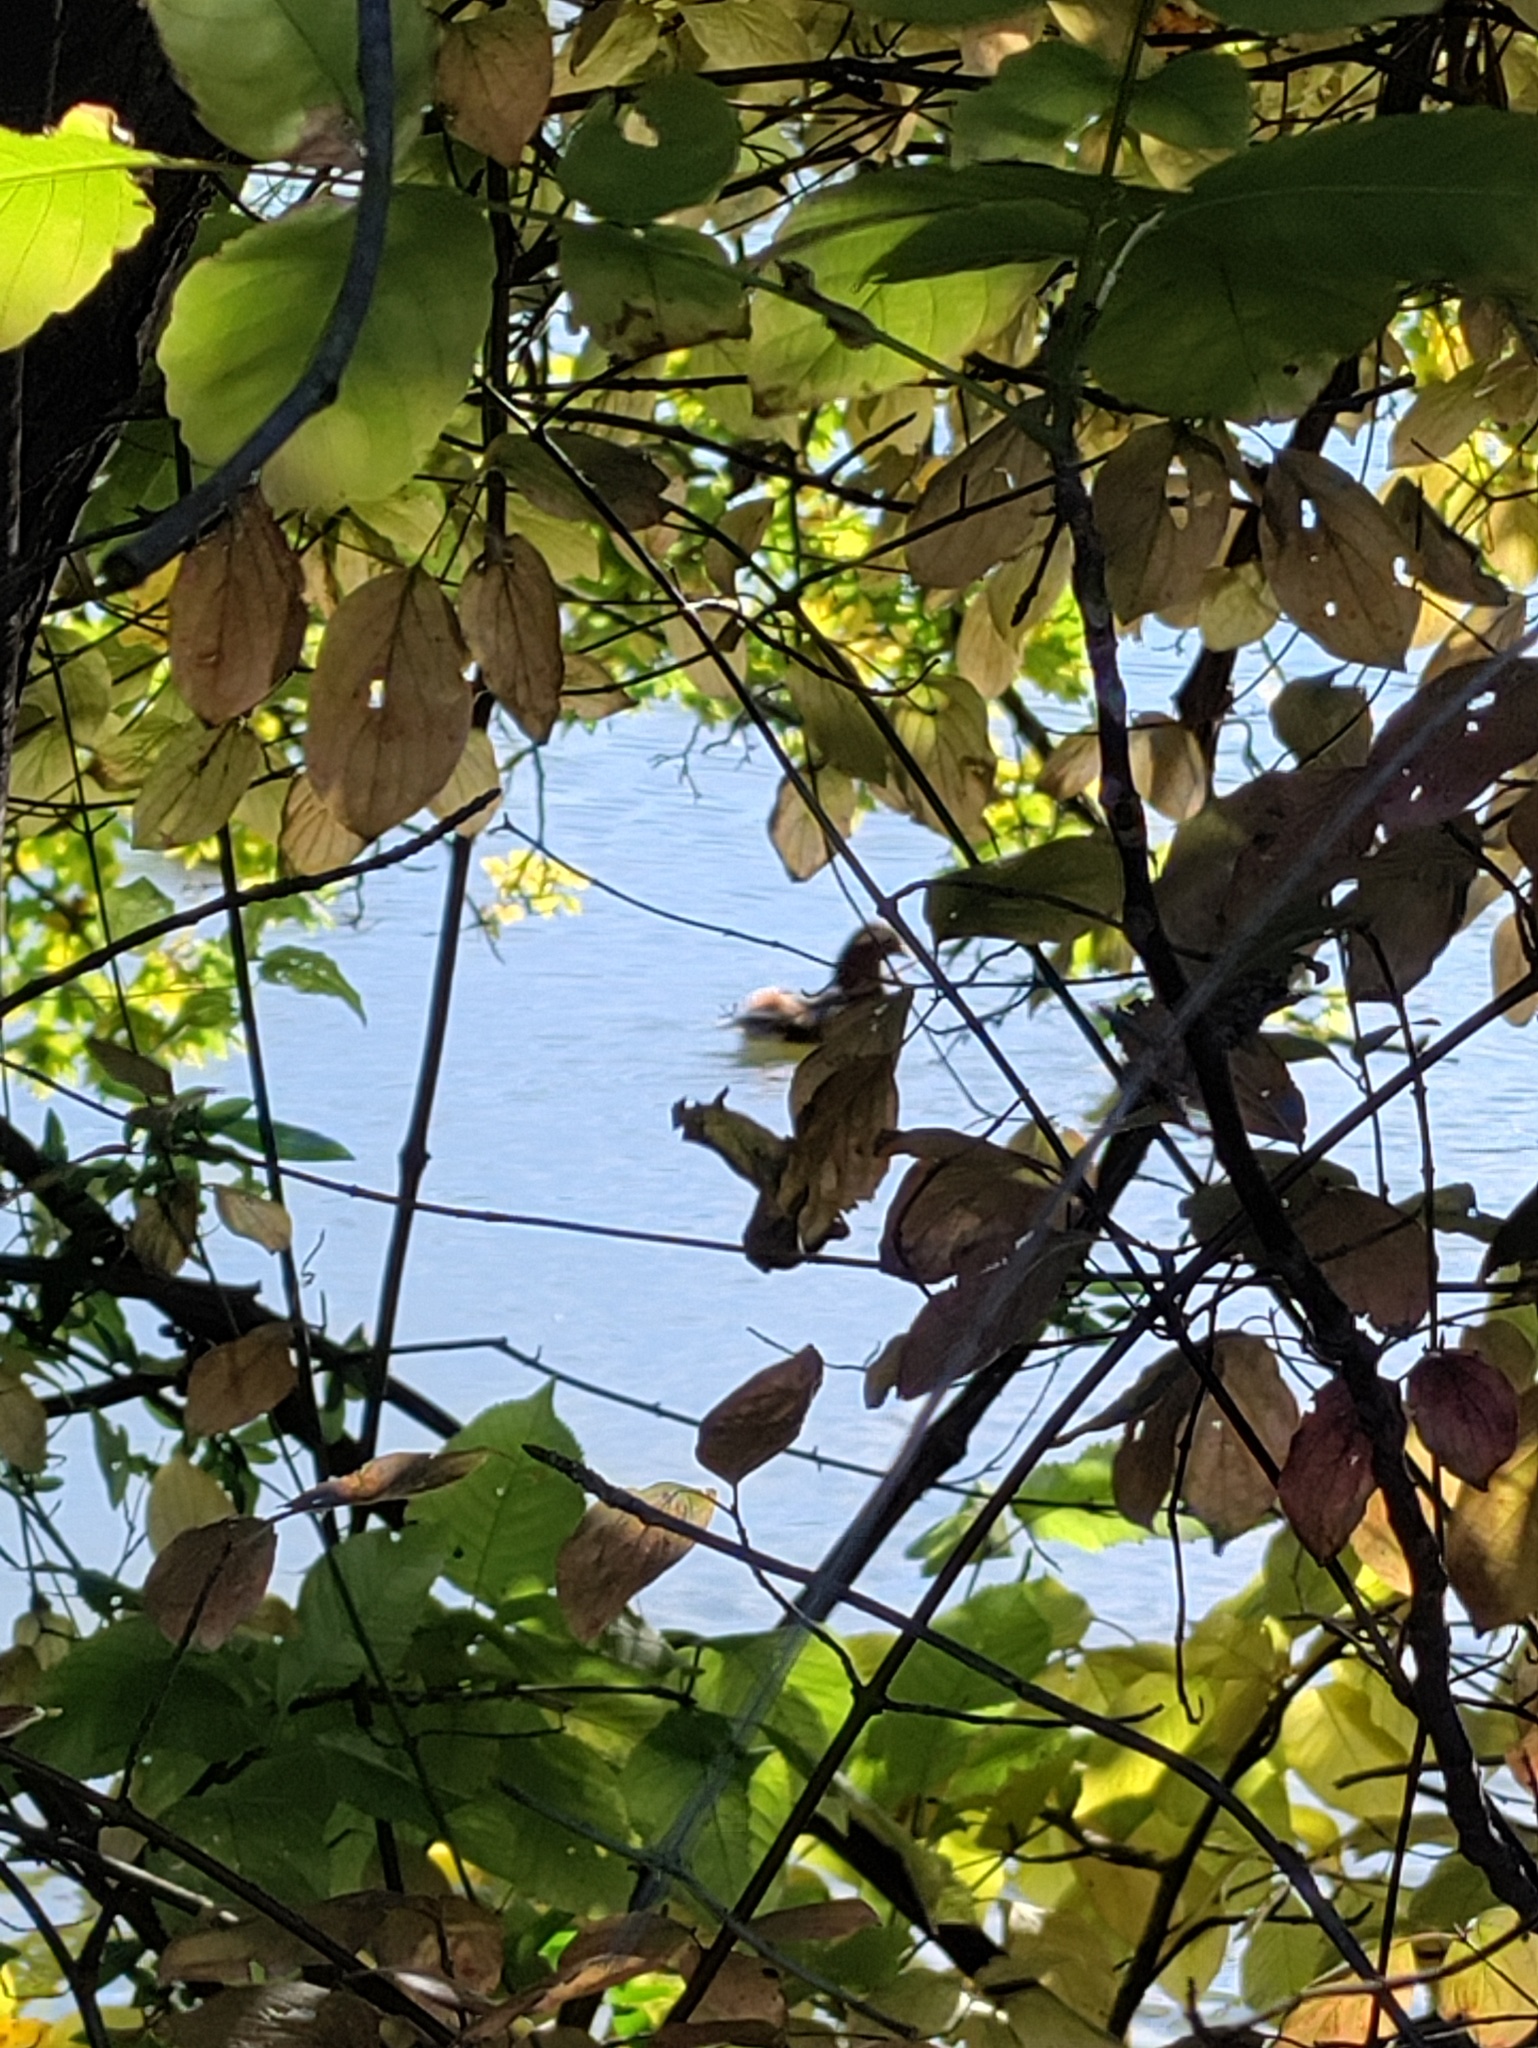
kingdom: Animalia
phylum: Chordata
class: Aves
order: Anseriformes
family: Anatidae
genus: Aix
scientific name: Aix galericulata
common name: Mandarin duck
